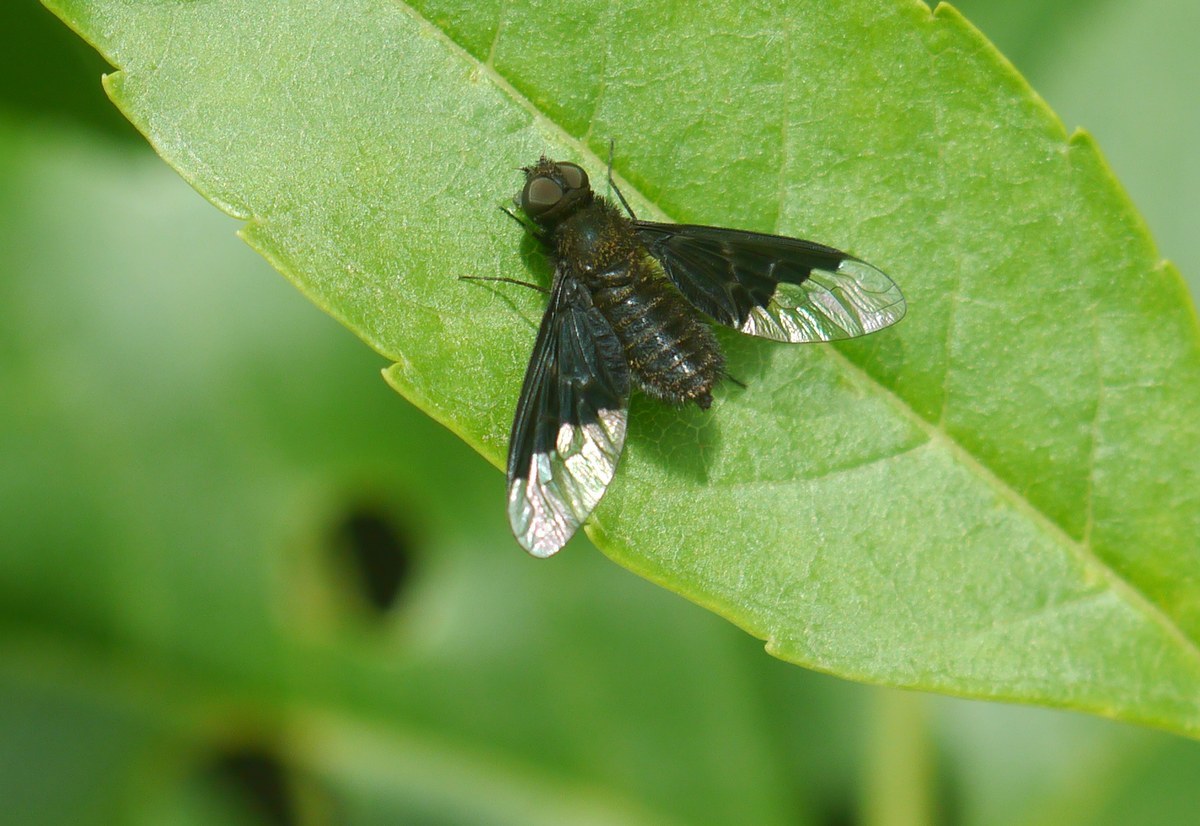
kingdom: Animalia
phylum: Arthropoda
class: Insecta
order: Diptera
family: Bombyliidae
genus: Hemipenthes
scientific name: Hemipenthes morio
